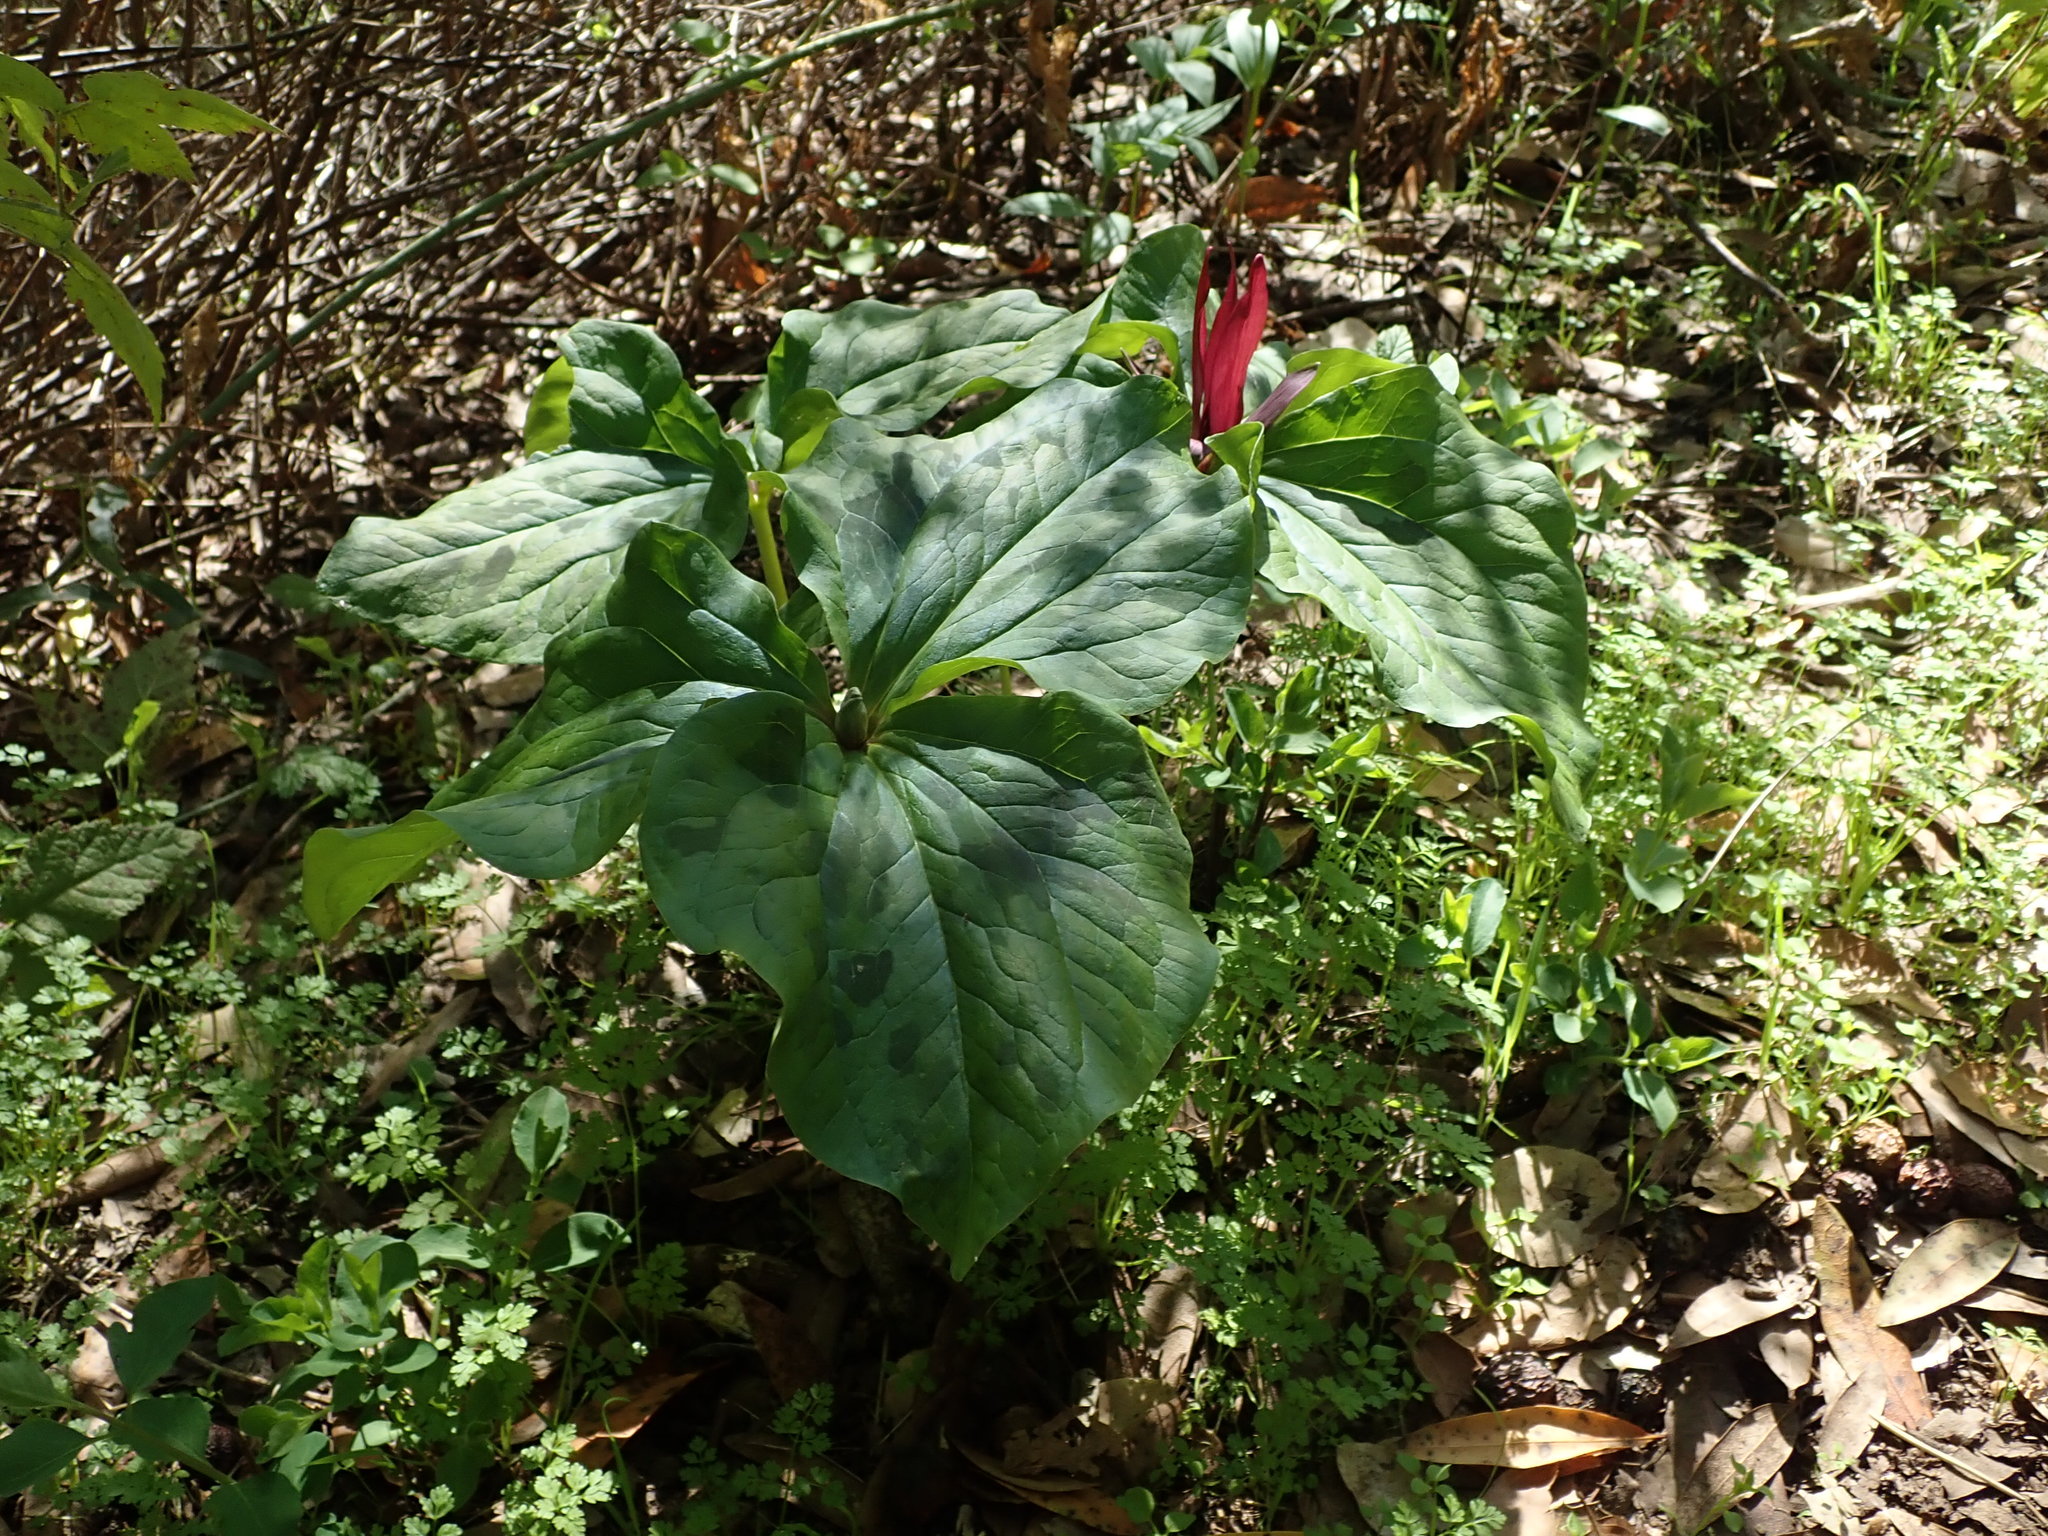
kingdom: Plantae
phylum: Tracheophyta
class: Liliopsida
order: Liliales
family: Melanthiaceae
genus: Trillium
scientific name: Trillium chloropetalum
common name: Giant trillium
